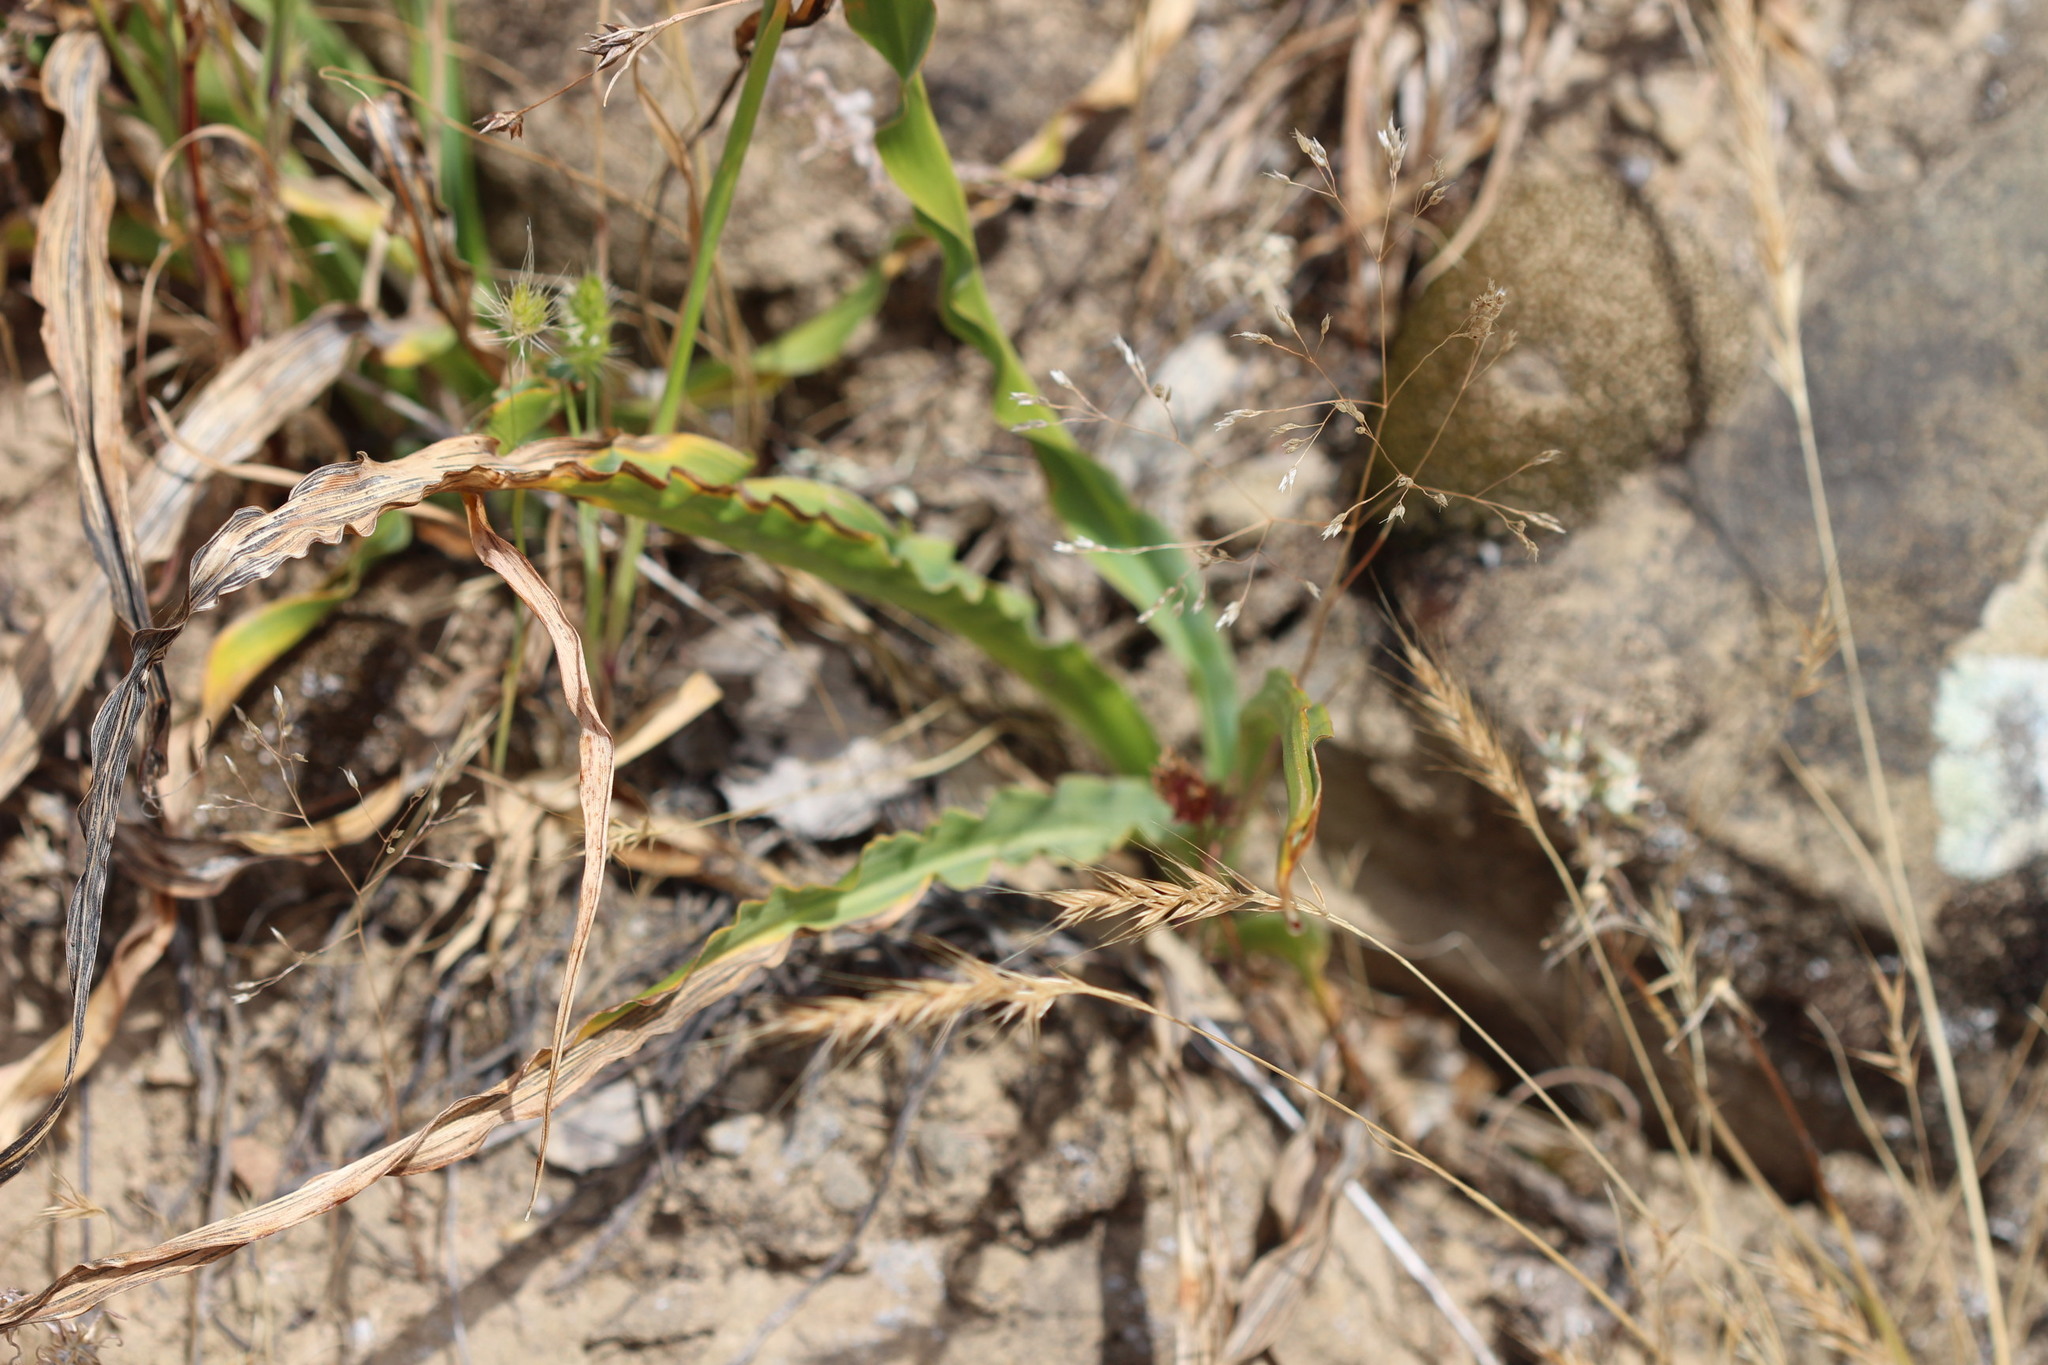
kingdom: Plantae
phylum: Tracheophyta
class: Liliopsida
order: Asparagales
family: Asparagaceae
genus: Chlorogalum
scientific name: Chlorogalum pomeridianum
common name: Amole
